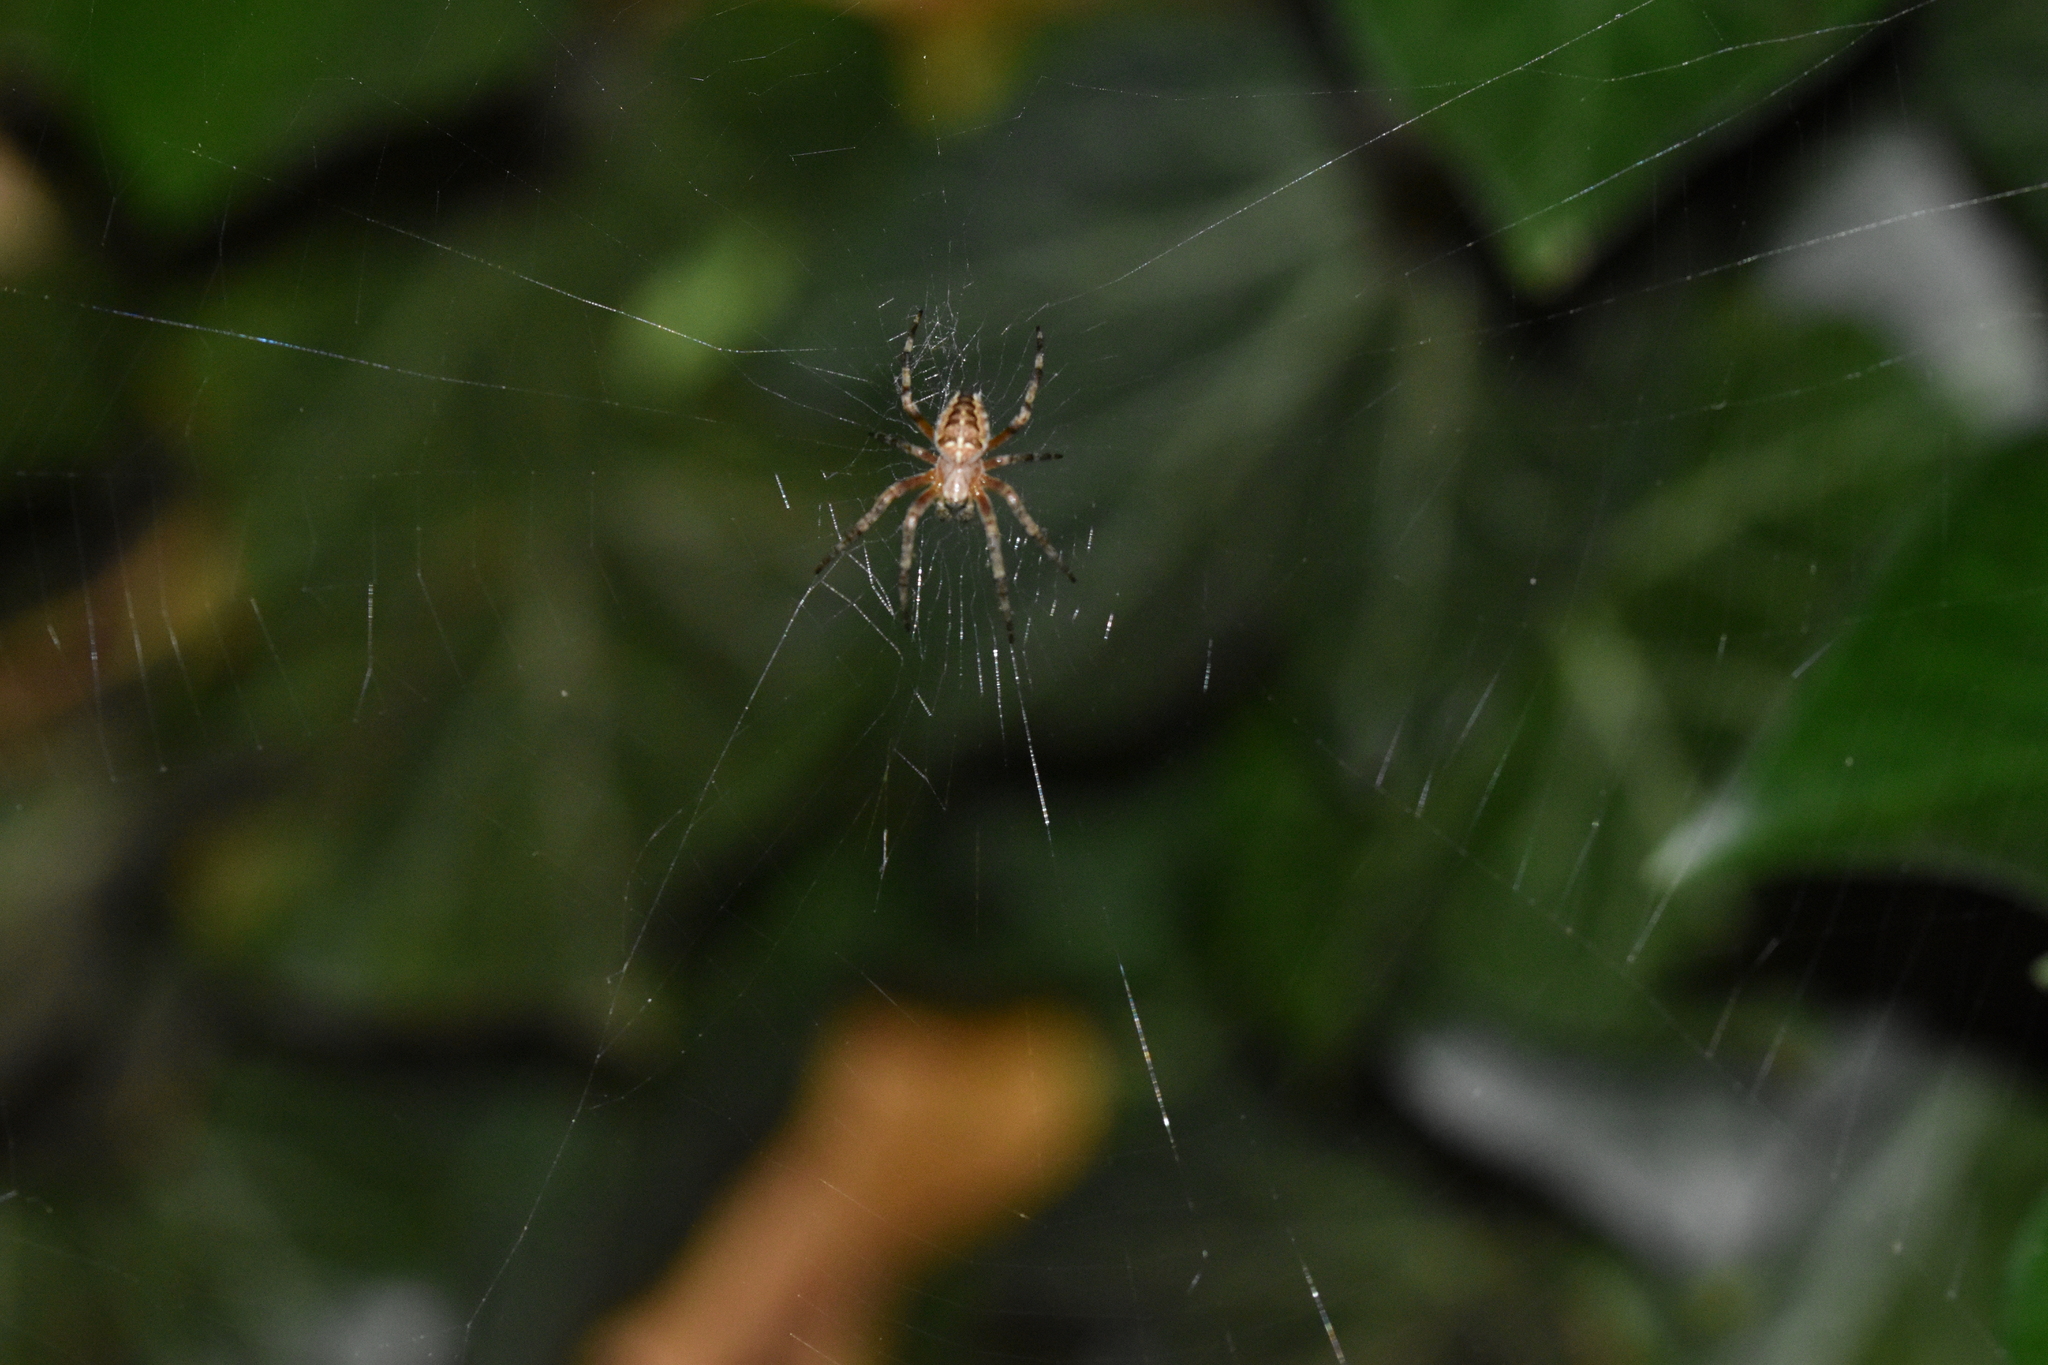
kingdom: Animalia
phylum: Arthropoda
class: Arachnida
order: Araneae
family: Araneidae
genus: Araneus
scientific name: Araneus diadematus
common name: Cross orbweaver
